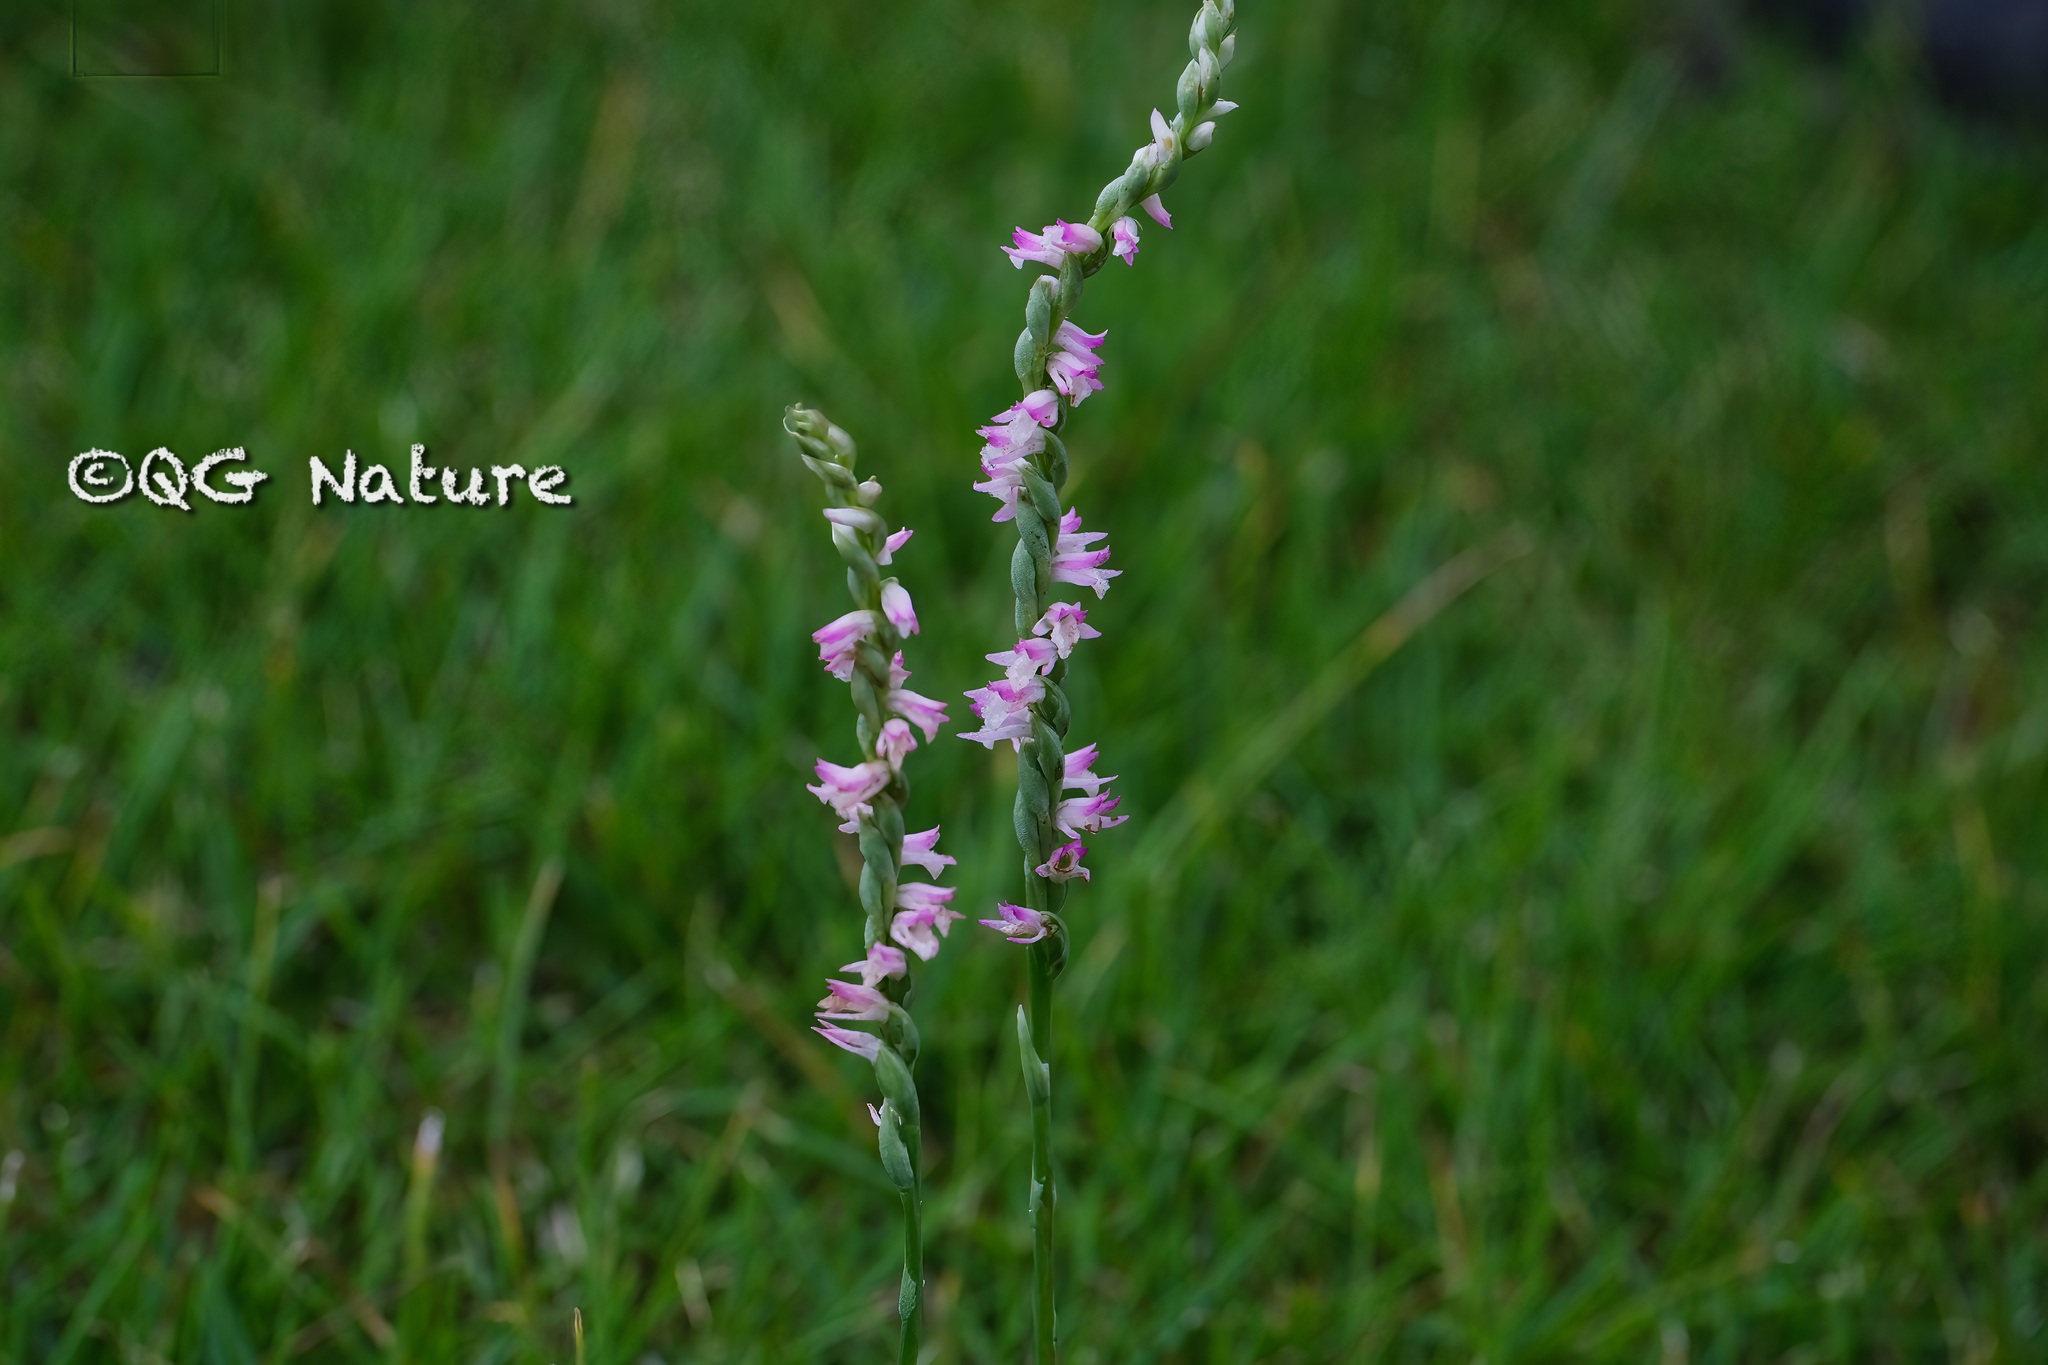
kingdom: Plantae
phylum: Tracheophyta
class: Liliopsida
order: Asparagales
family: Orchidaceae
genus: Spiranthes
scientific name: Spiranthes sinensis
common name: Chinese spiranthes
